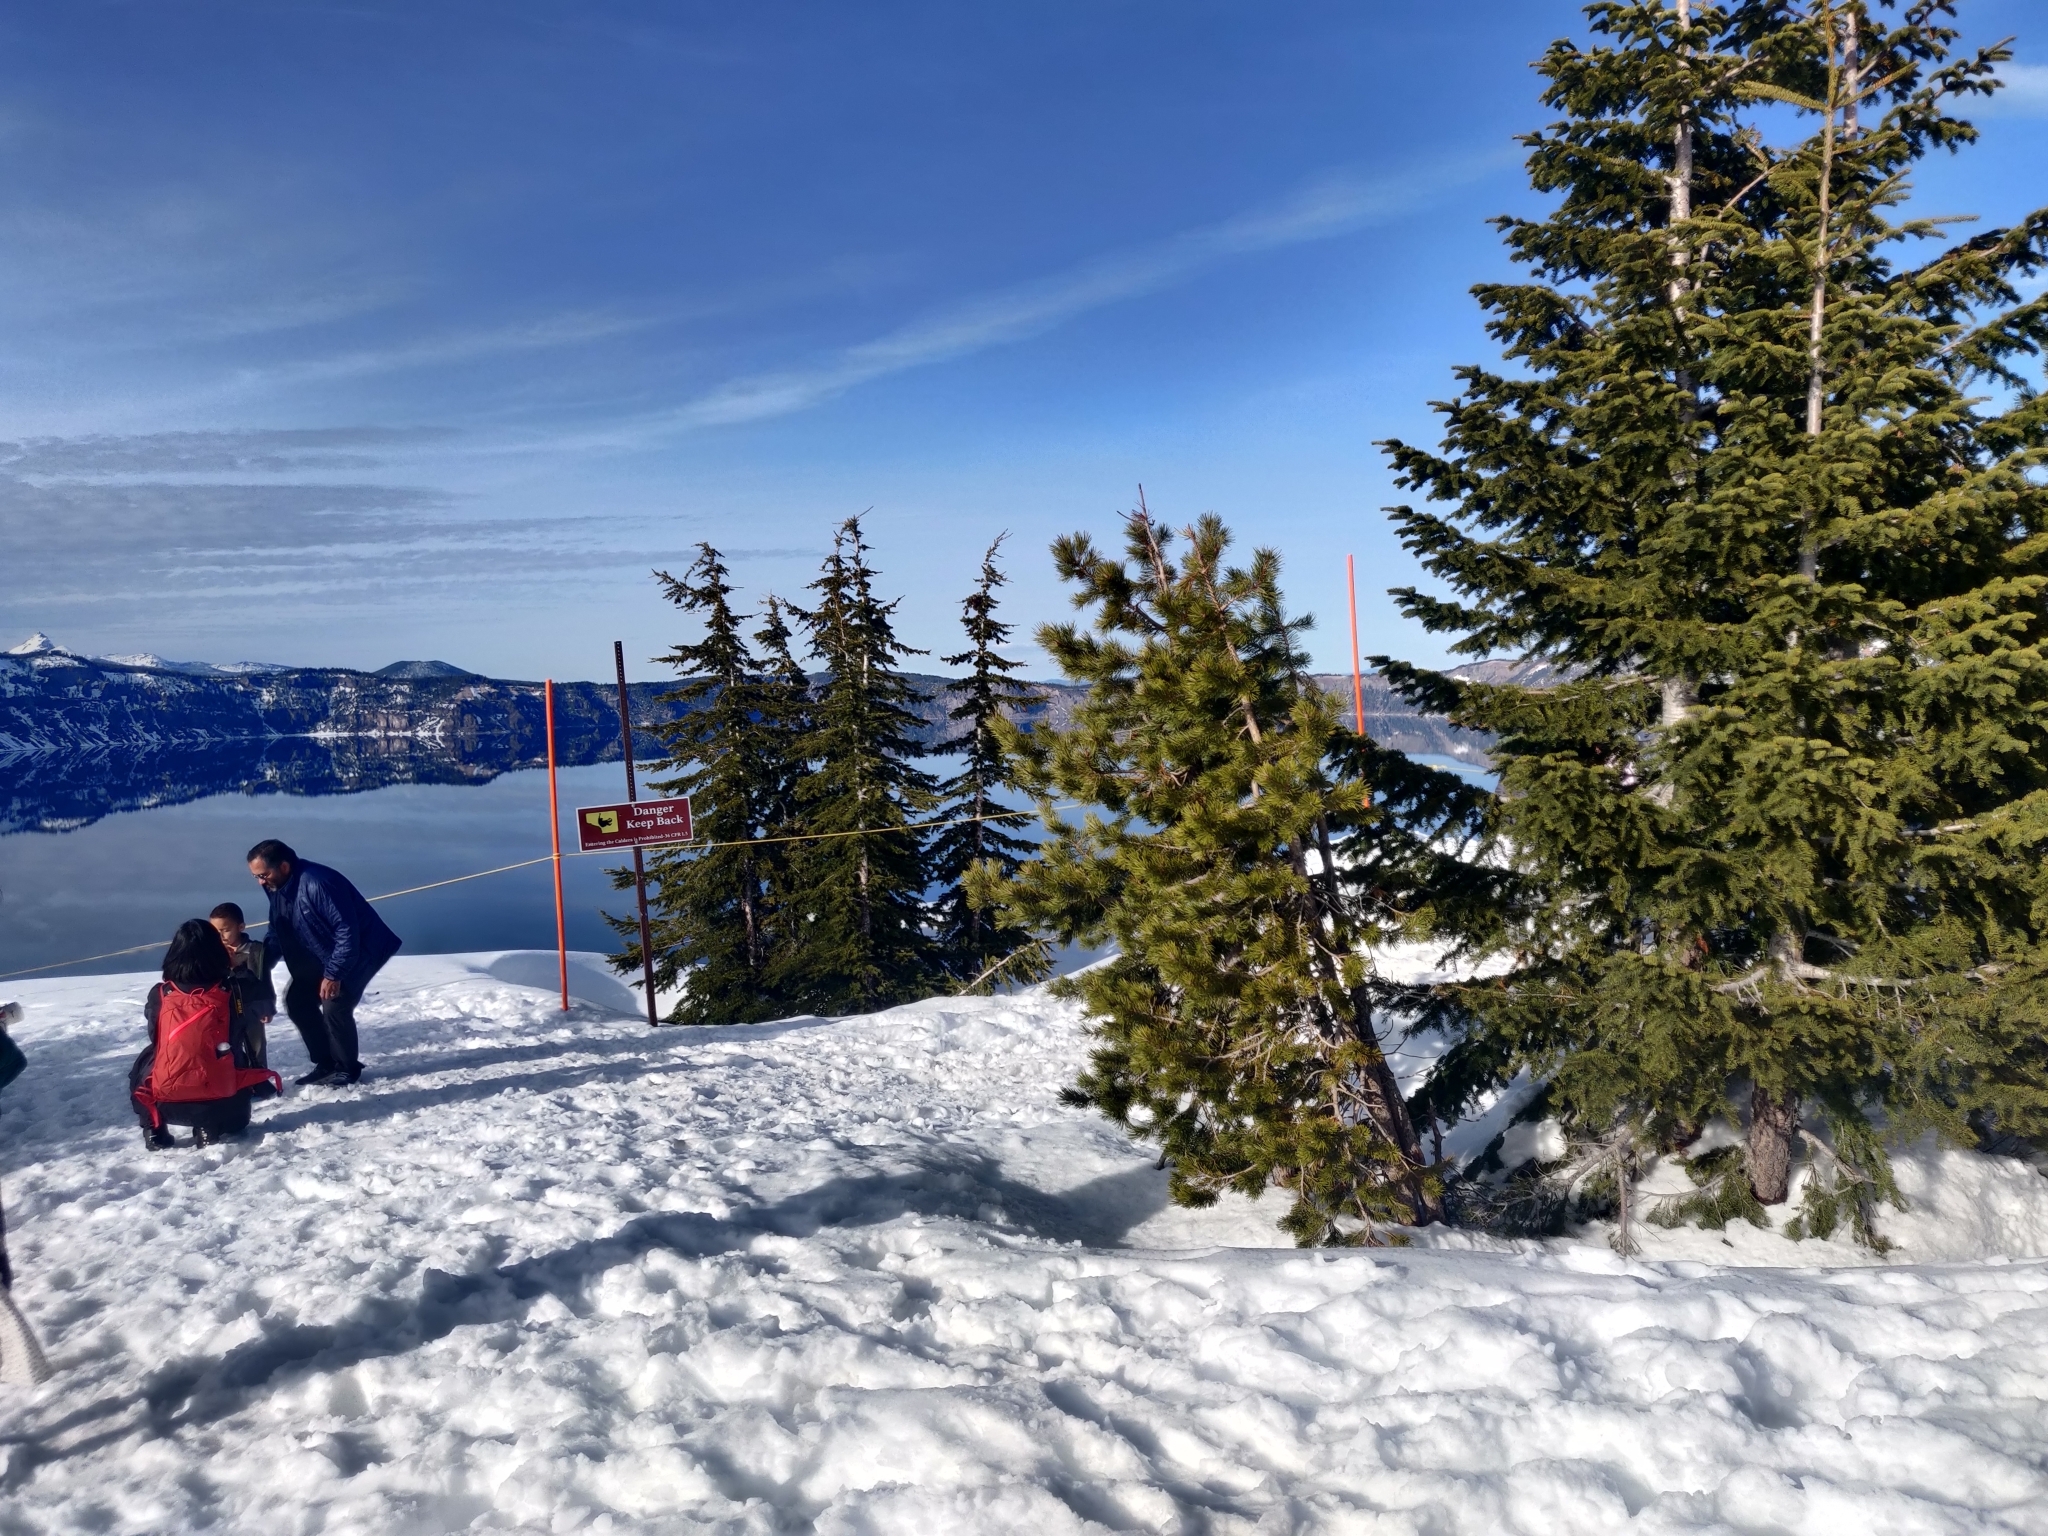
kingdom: Plantae
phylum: Tracheophyta
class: Pinopsida
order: Pinales
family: Pinaceae
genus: Pinus
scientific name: Pinus contorta
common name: Lodgepole pine
